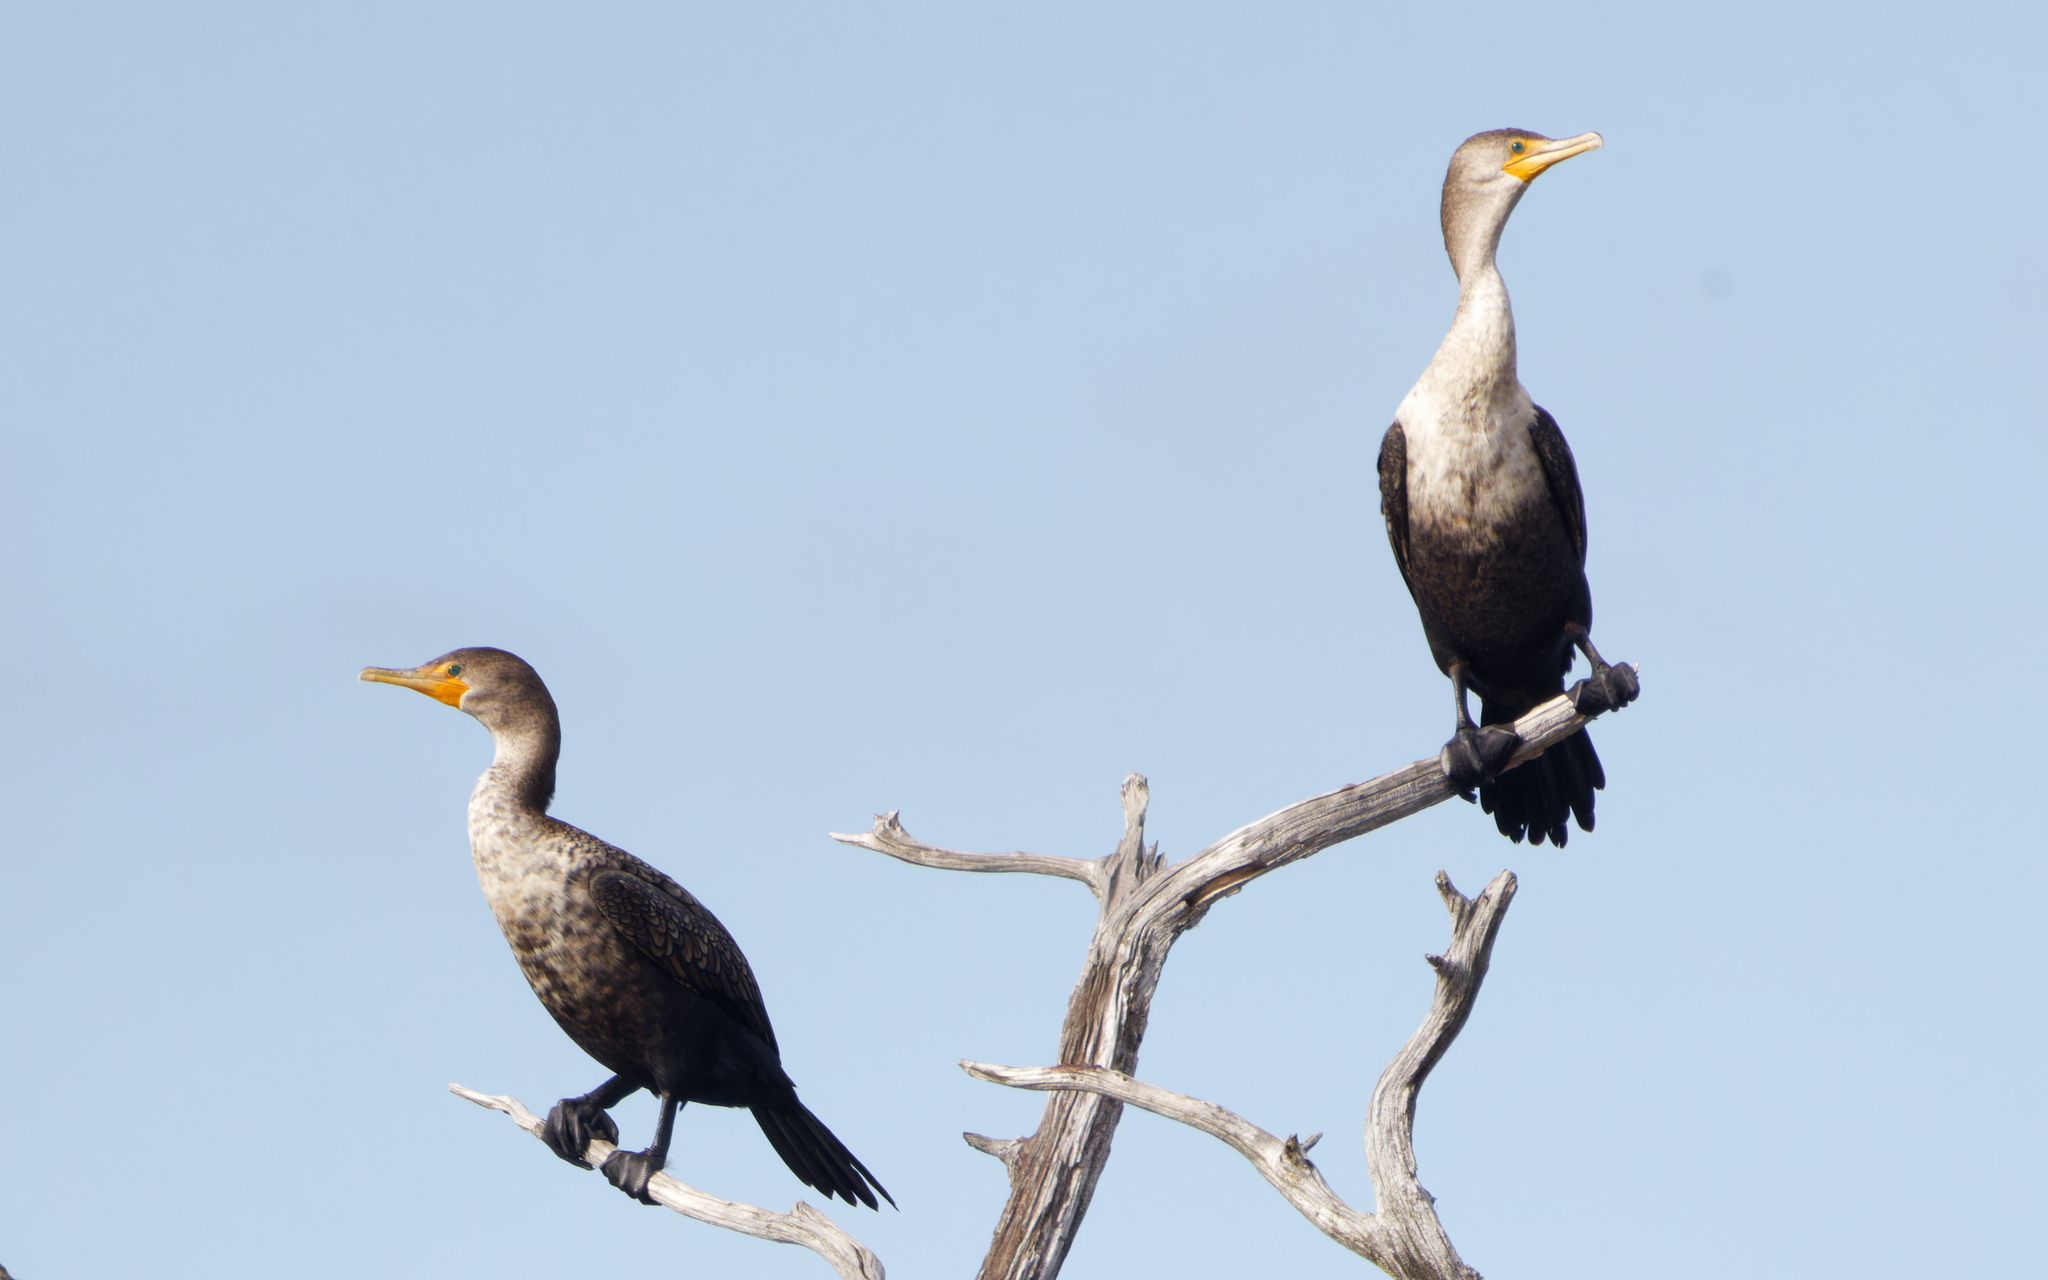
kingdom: Animalia
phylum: Chordata
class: Aves
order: Suliformes
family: Phalacrocoracidae
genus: Phalacrocorax
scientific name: Phalacrocorax auritus
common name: Double-crested cormorant
